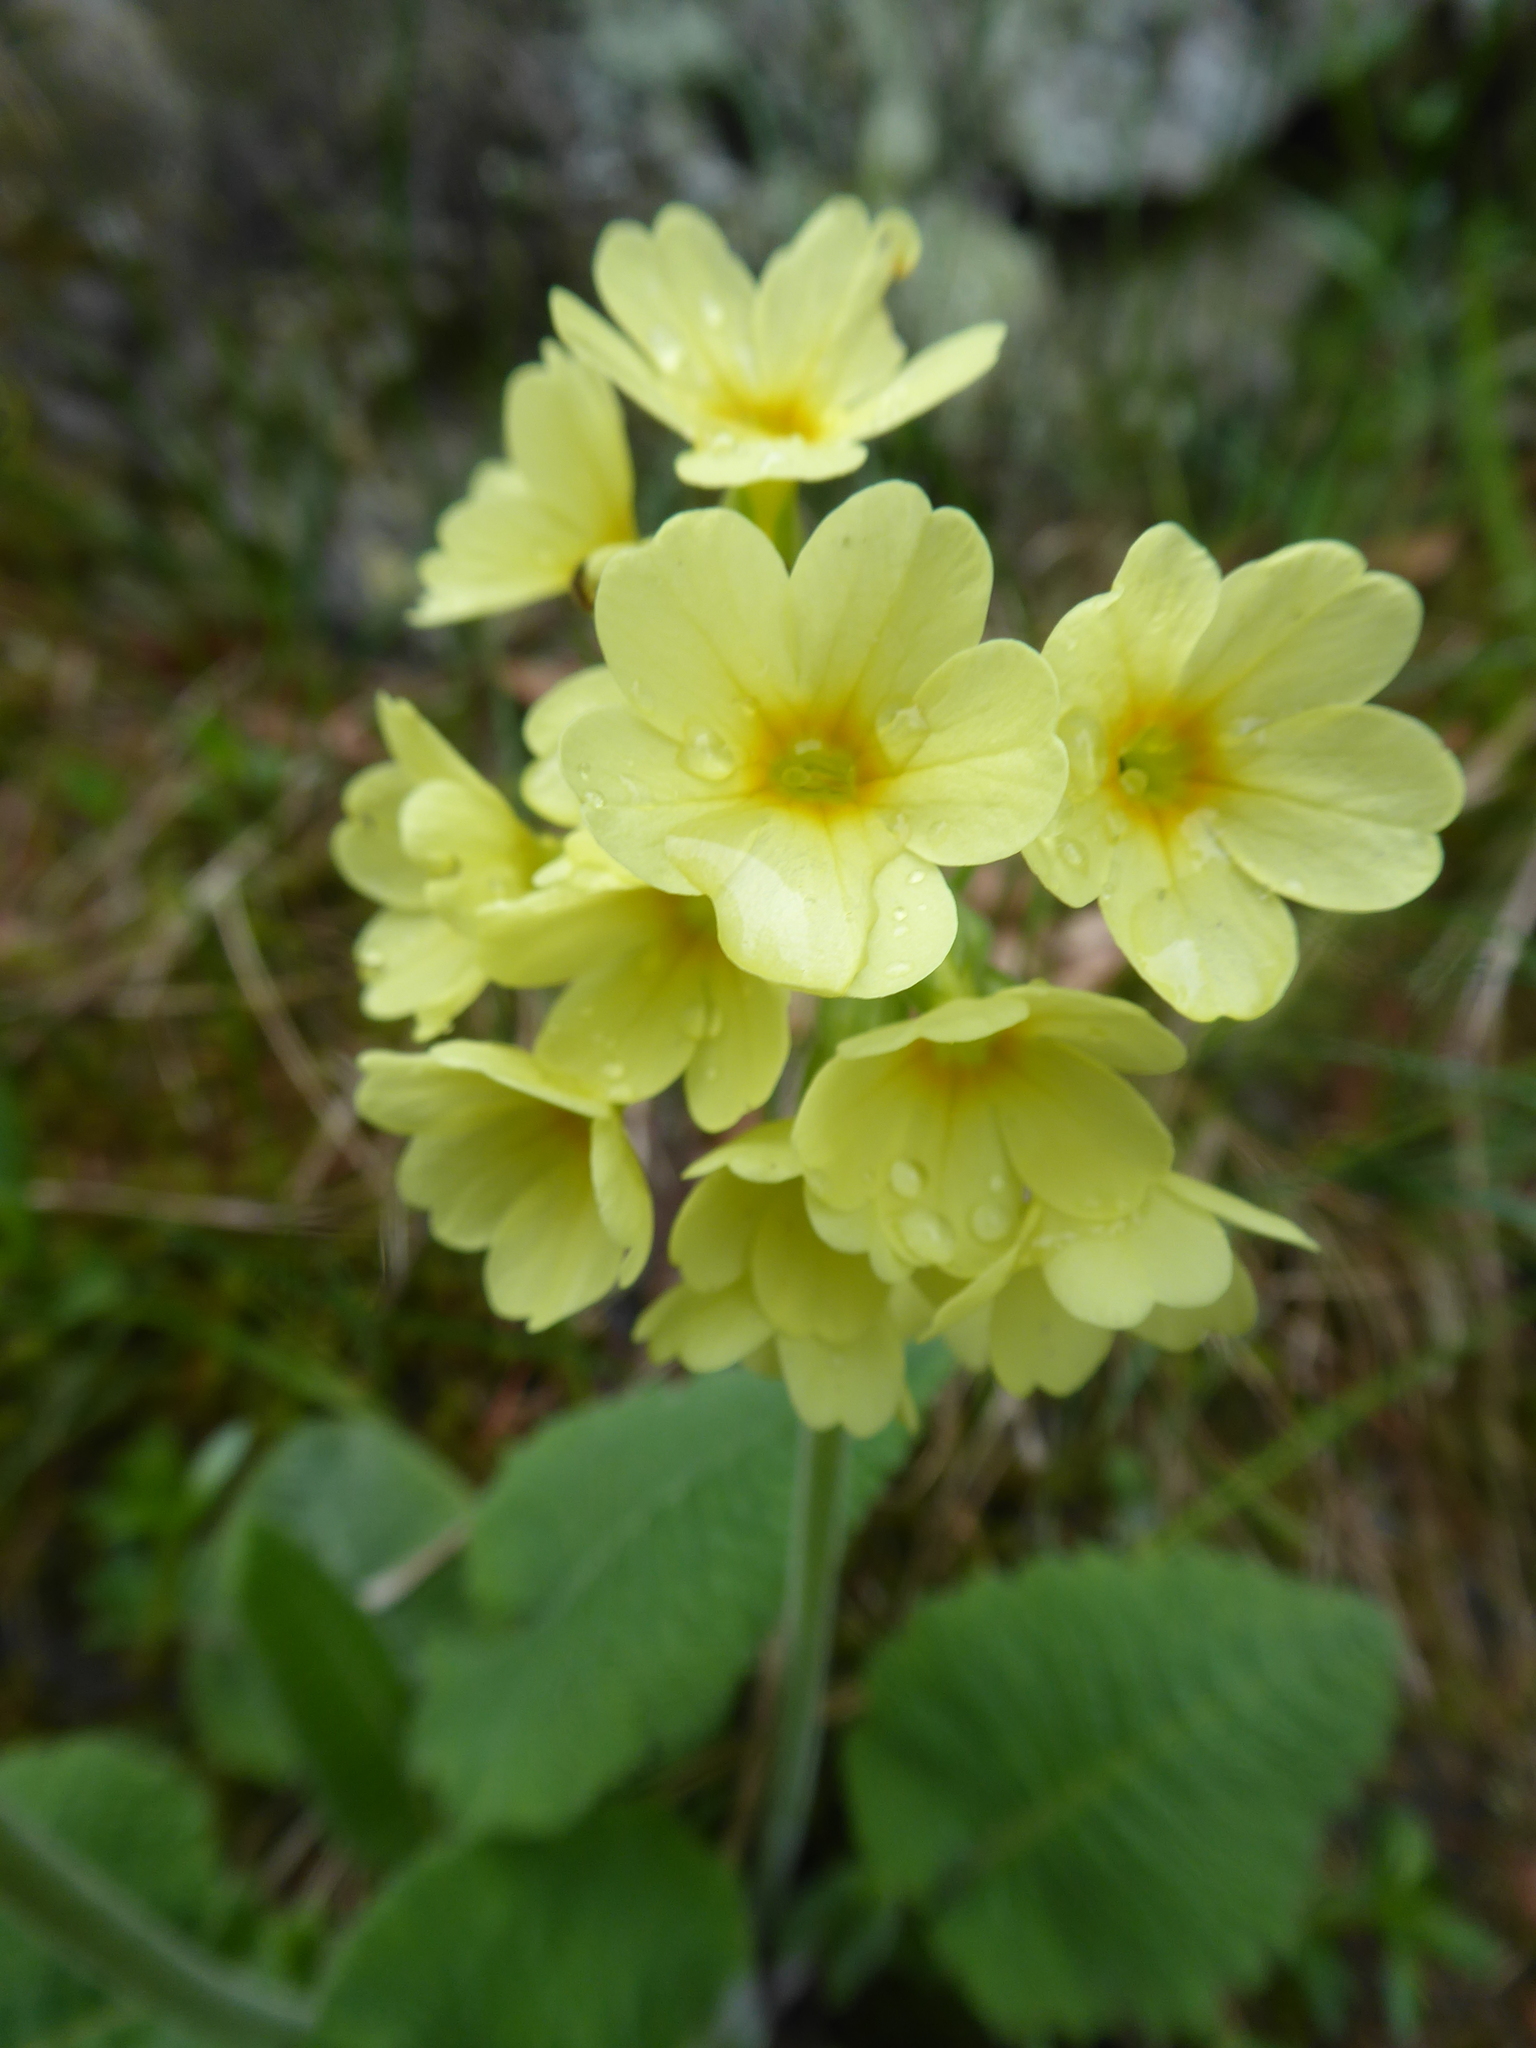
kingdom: Plantae
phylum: Tracheophyta
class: Magnoliopsida
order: Ericales
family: Primulaceae
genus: Primula
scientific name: Primula elatior
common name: Oxlip
